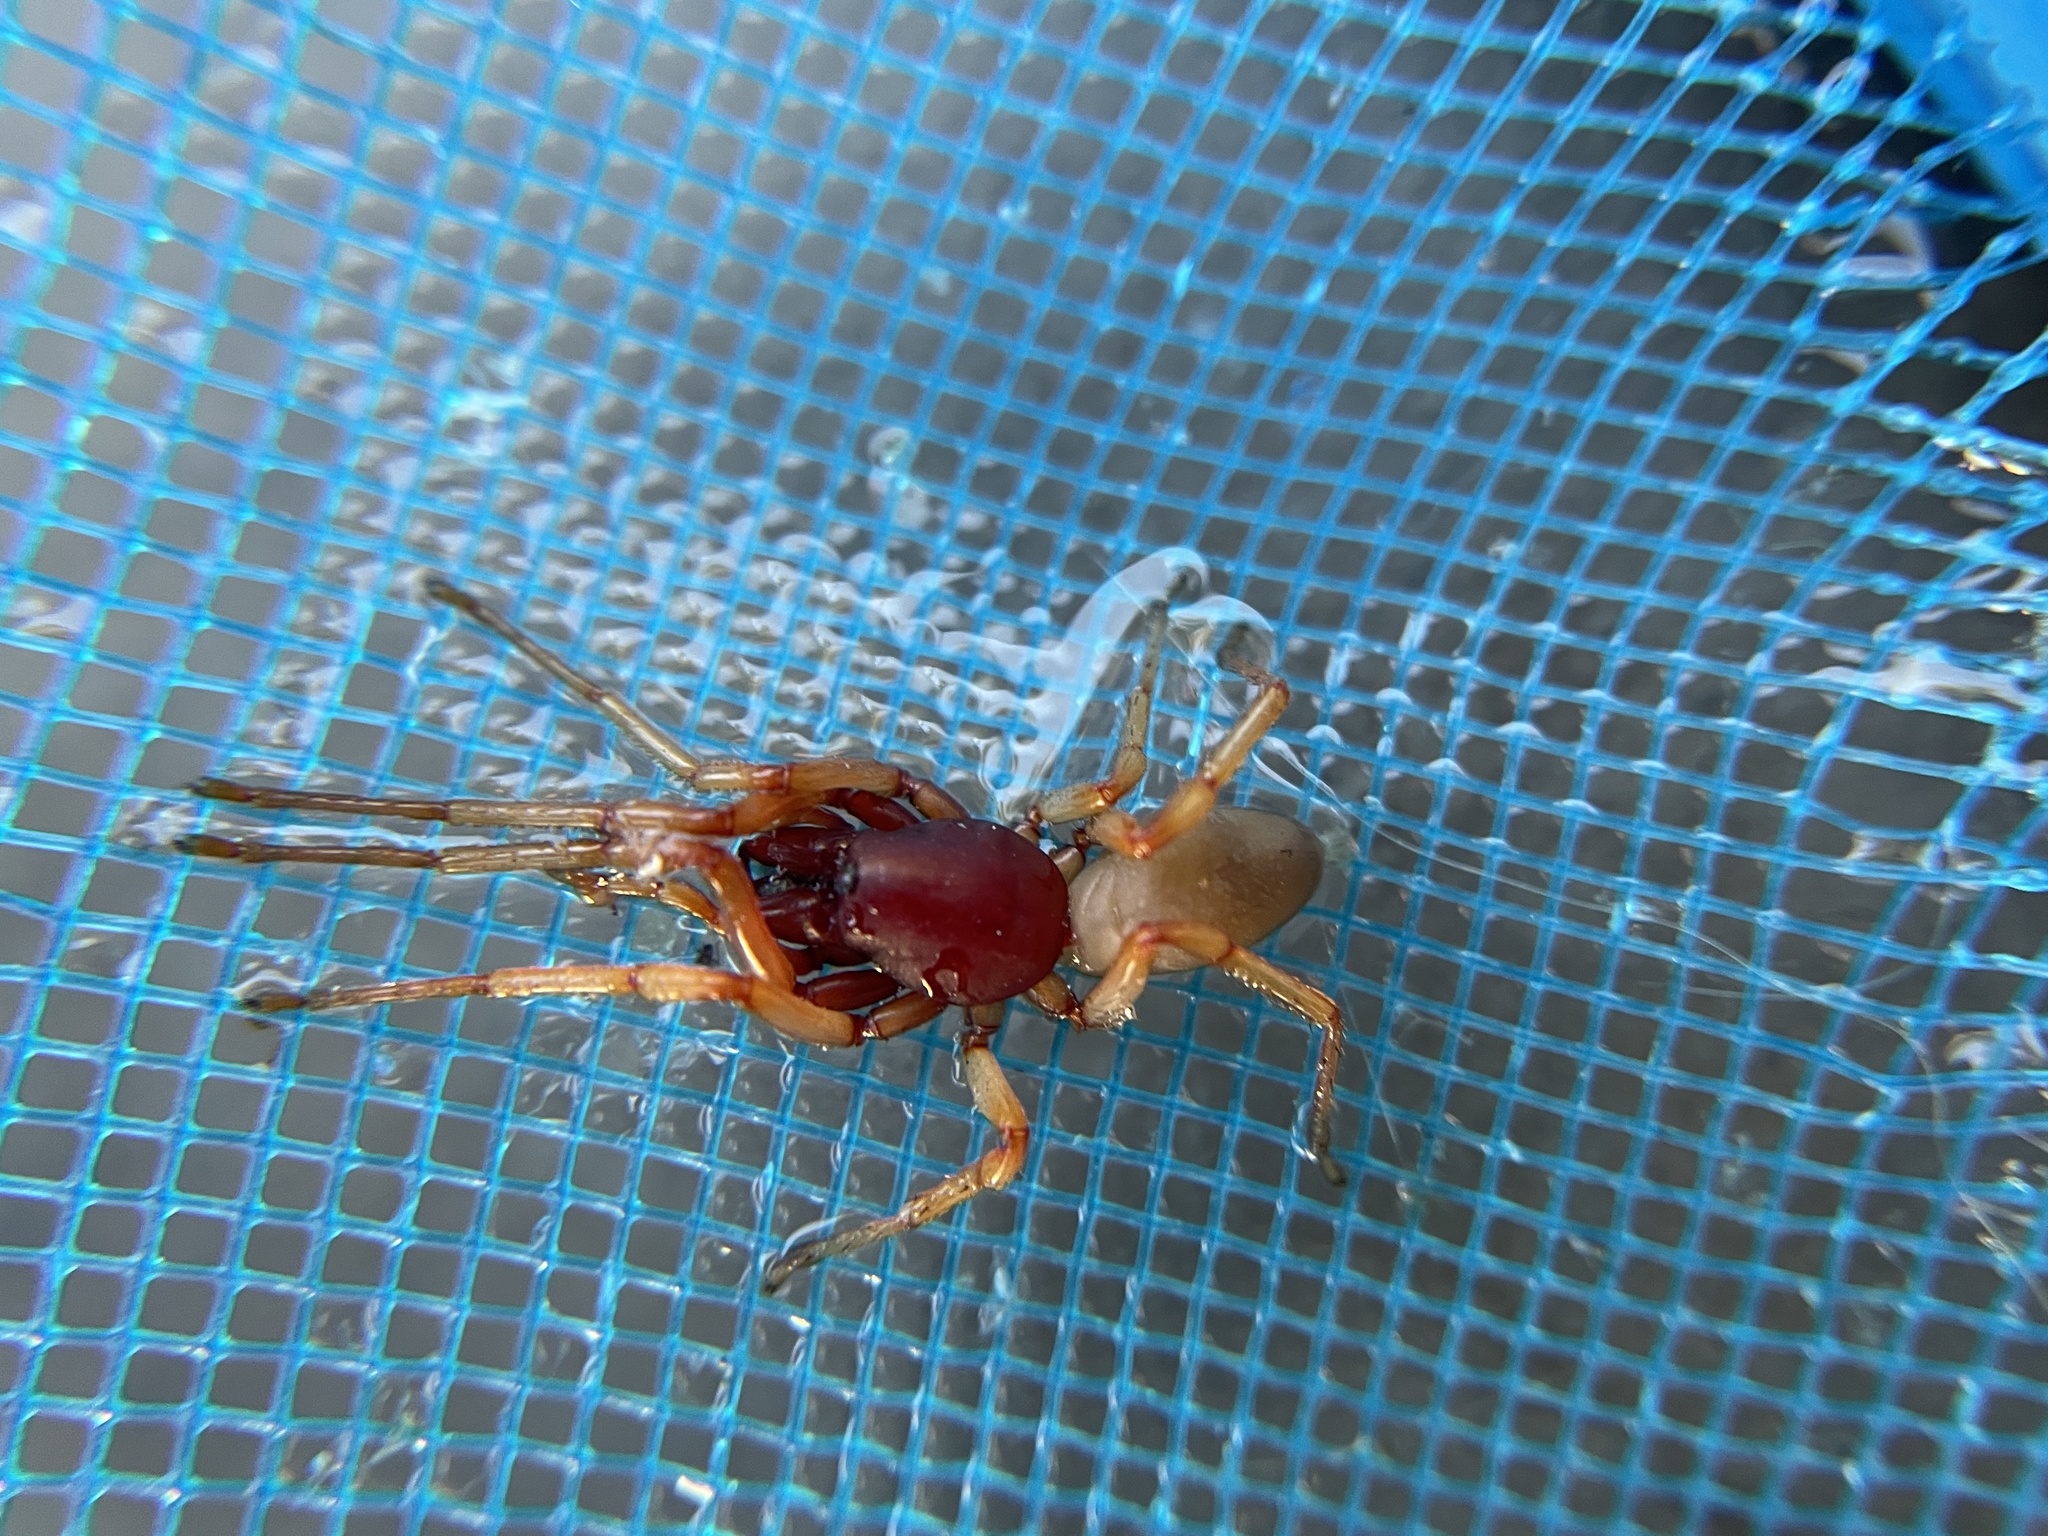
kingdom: Animalia
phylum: Arthropoda
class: Arachnida
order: Araneae
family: Dysderidae
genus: Dysdera
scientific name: Dysdera crocata
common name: Woodlouse spider
